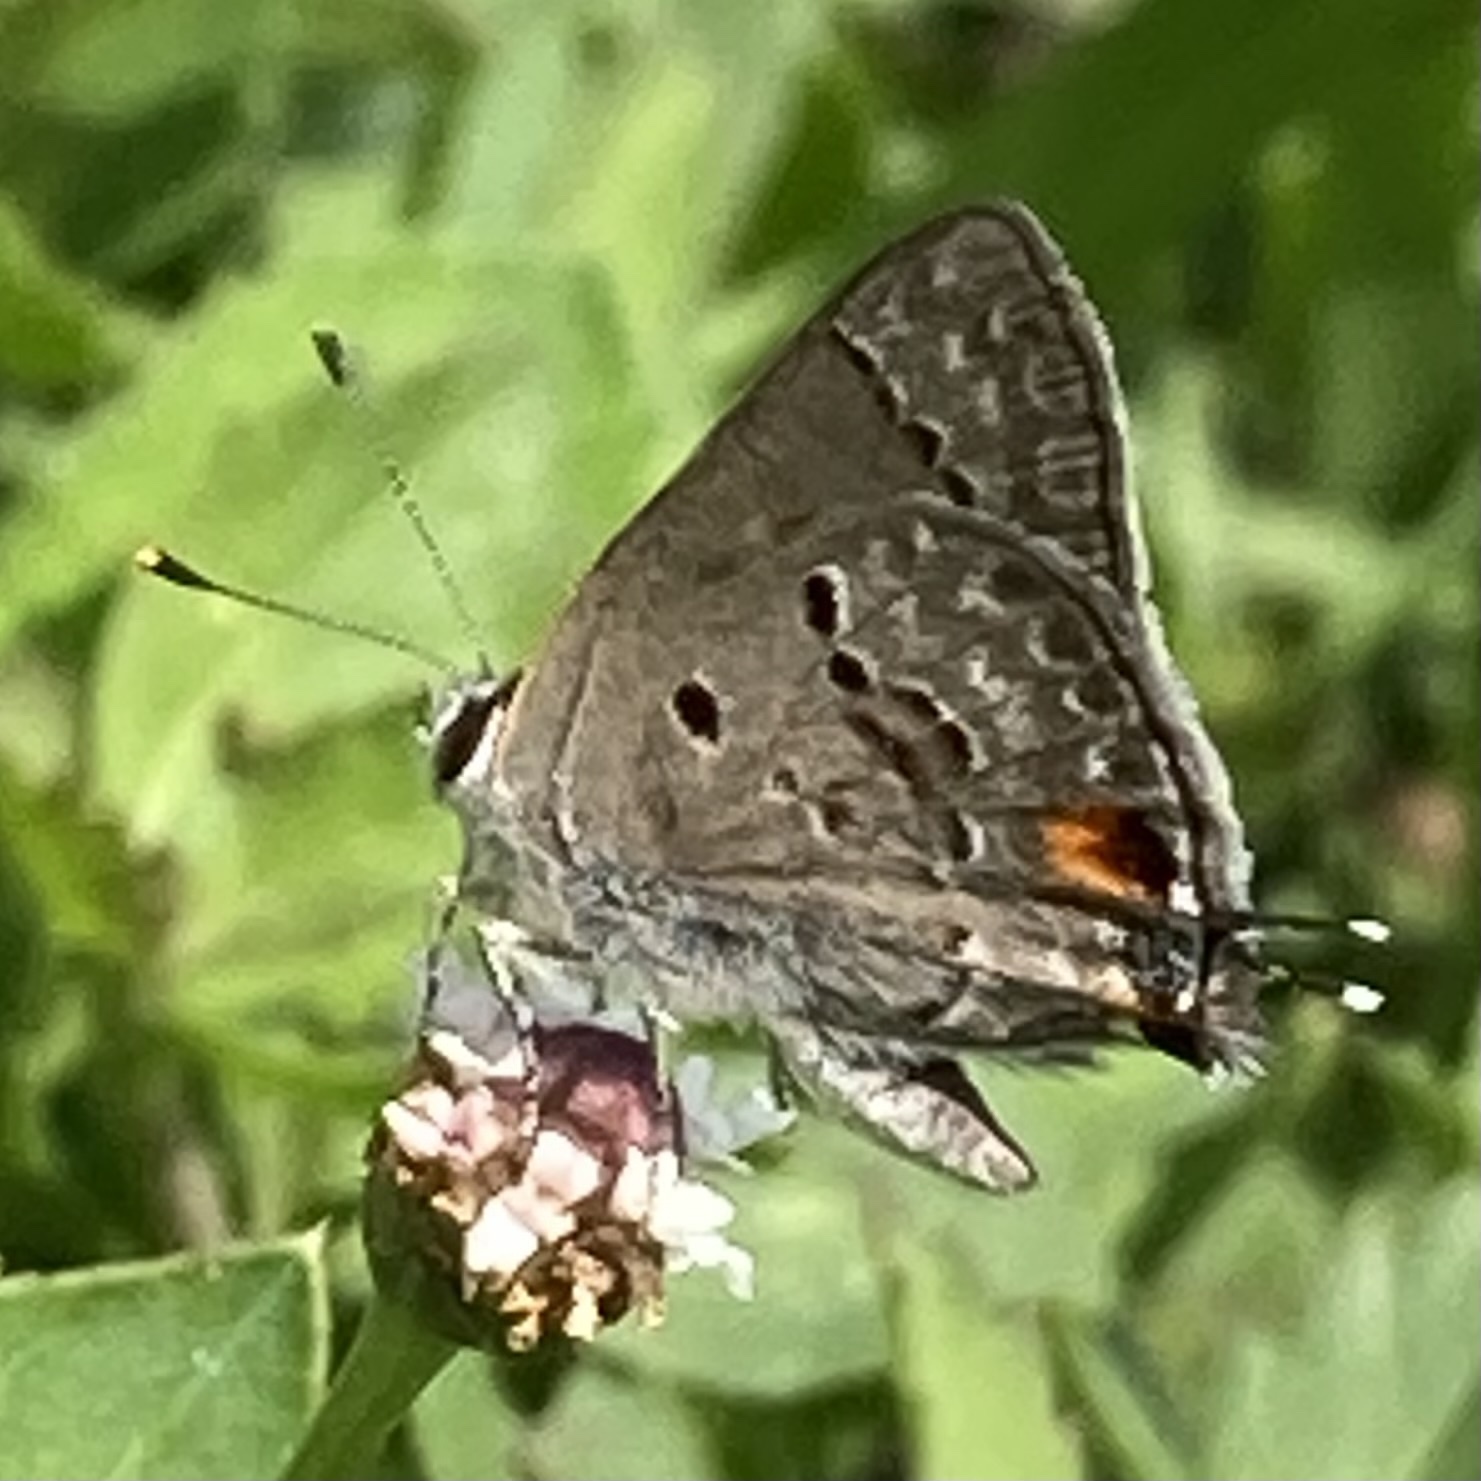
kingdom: Animalia
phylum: Arthropoda
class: Insecta
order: Lepidoptera
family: Lycaenidae
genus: Callicista
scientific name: Callicista columella
